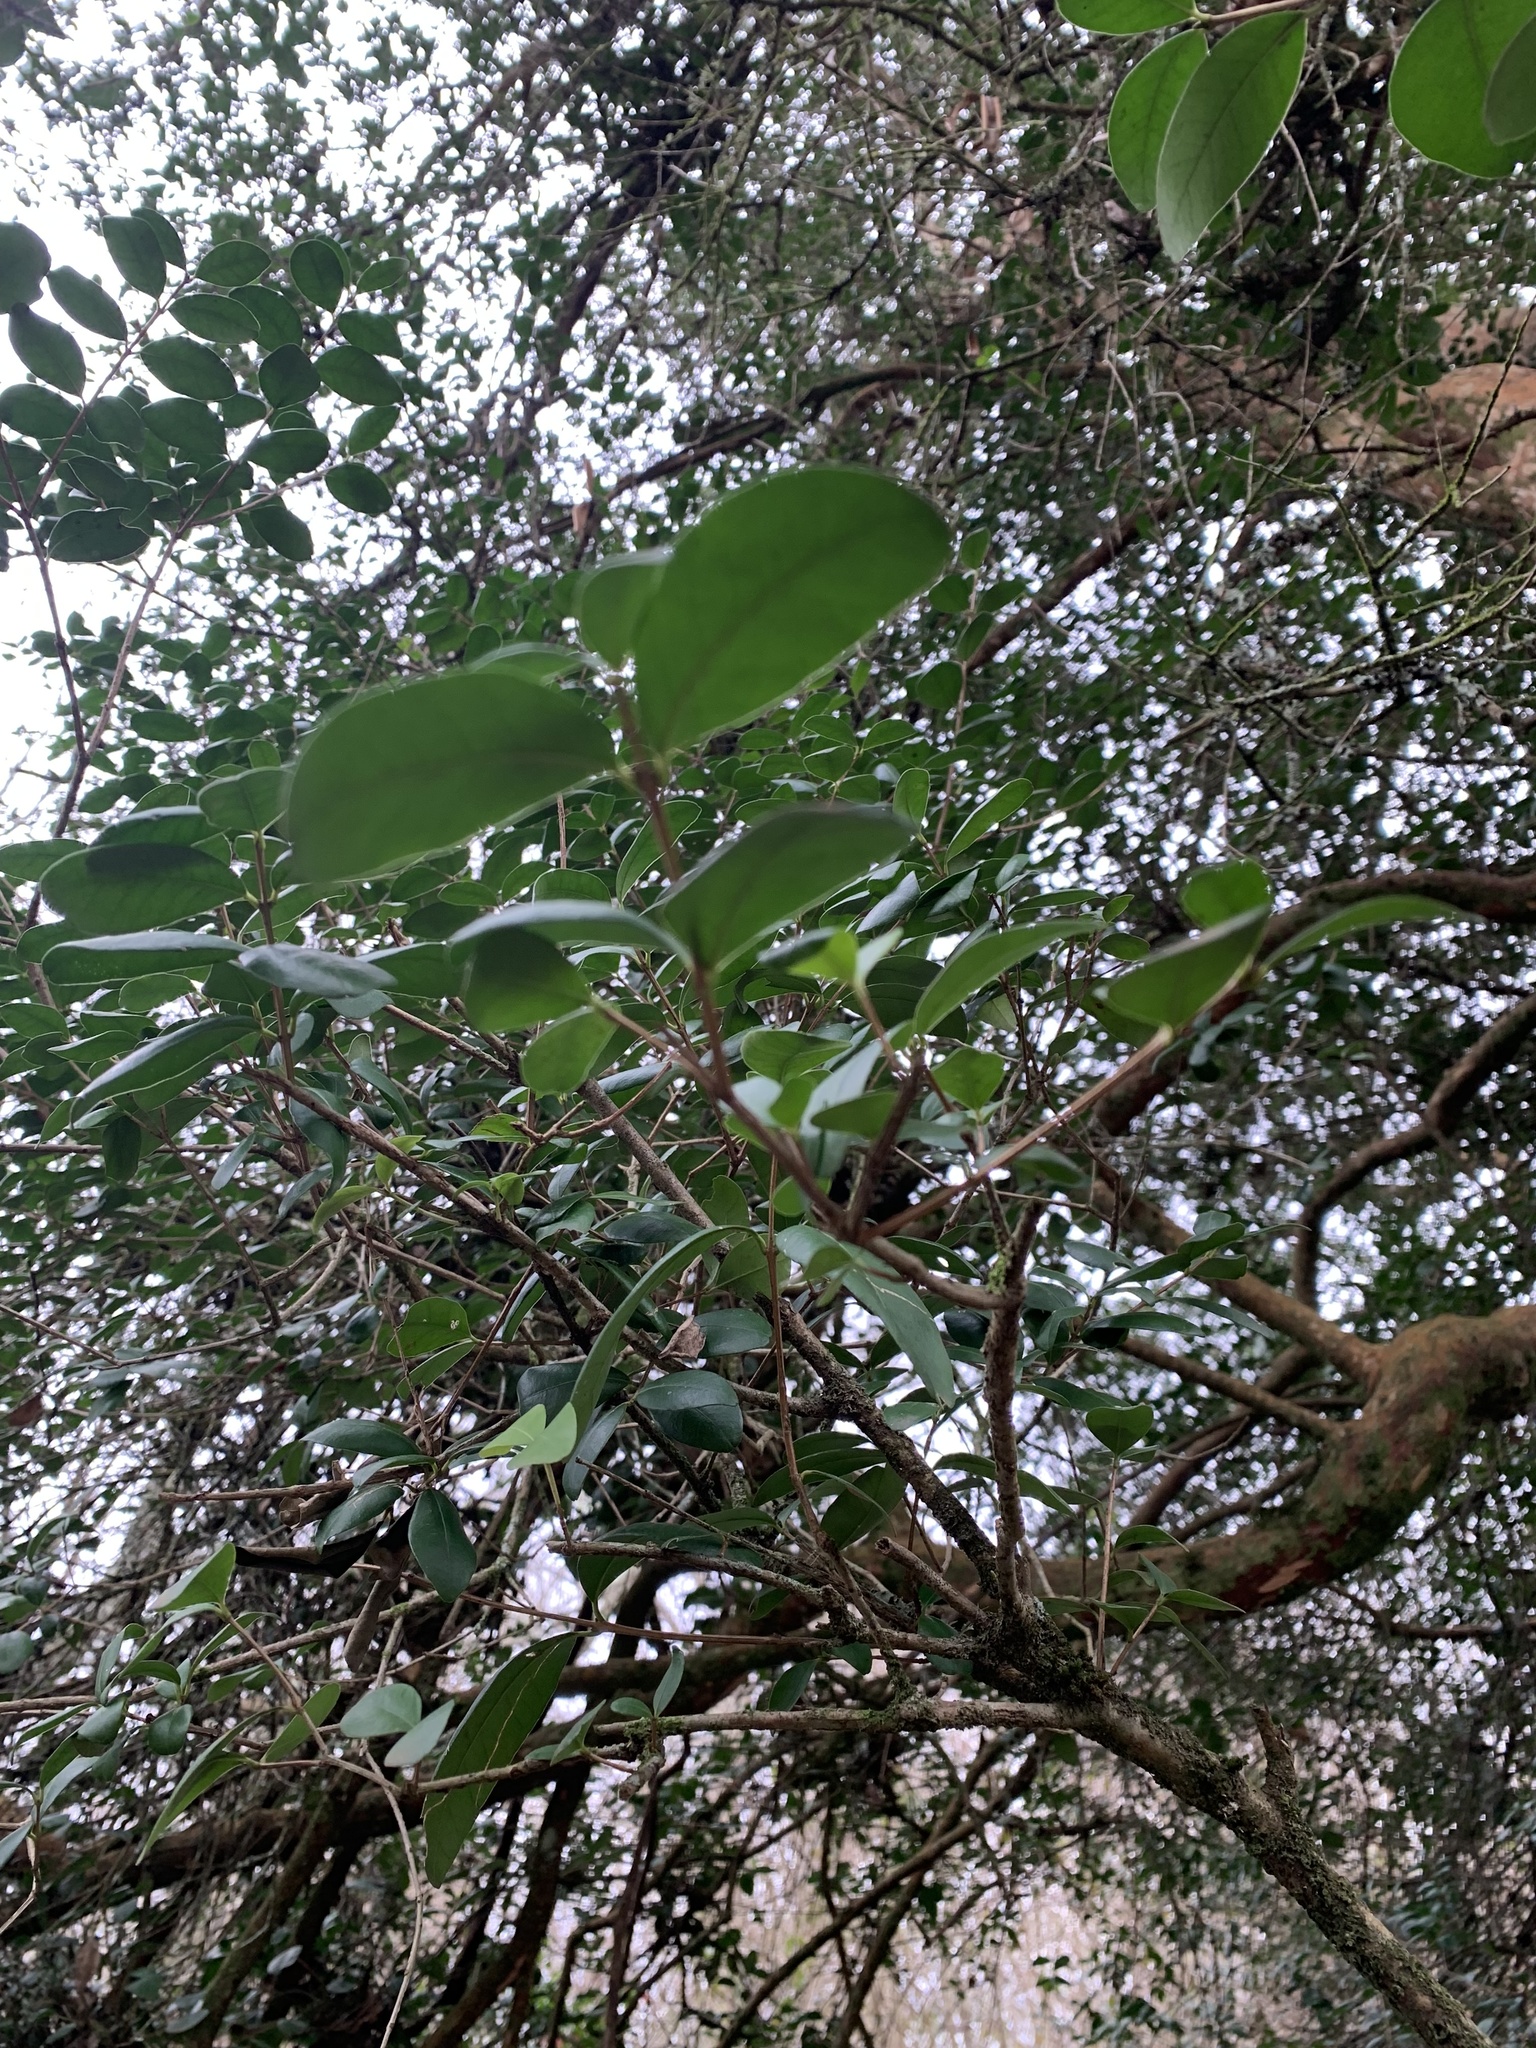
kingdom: Plantae
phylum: Tracheophyta
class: Magnoliopsida
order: Myrtales
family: Myrtaceae
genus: Blepharocalyx
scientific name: Blepharocalyx cruckshanksii
